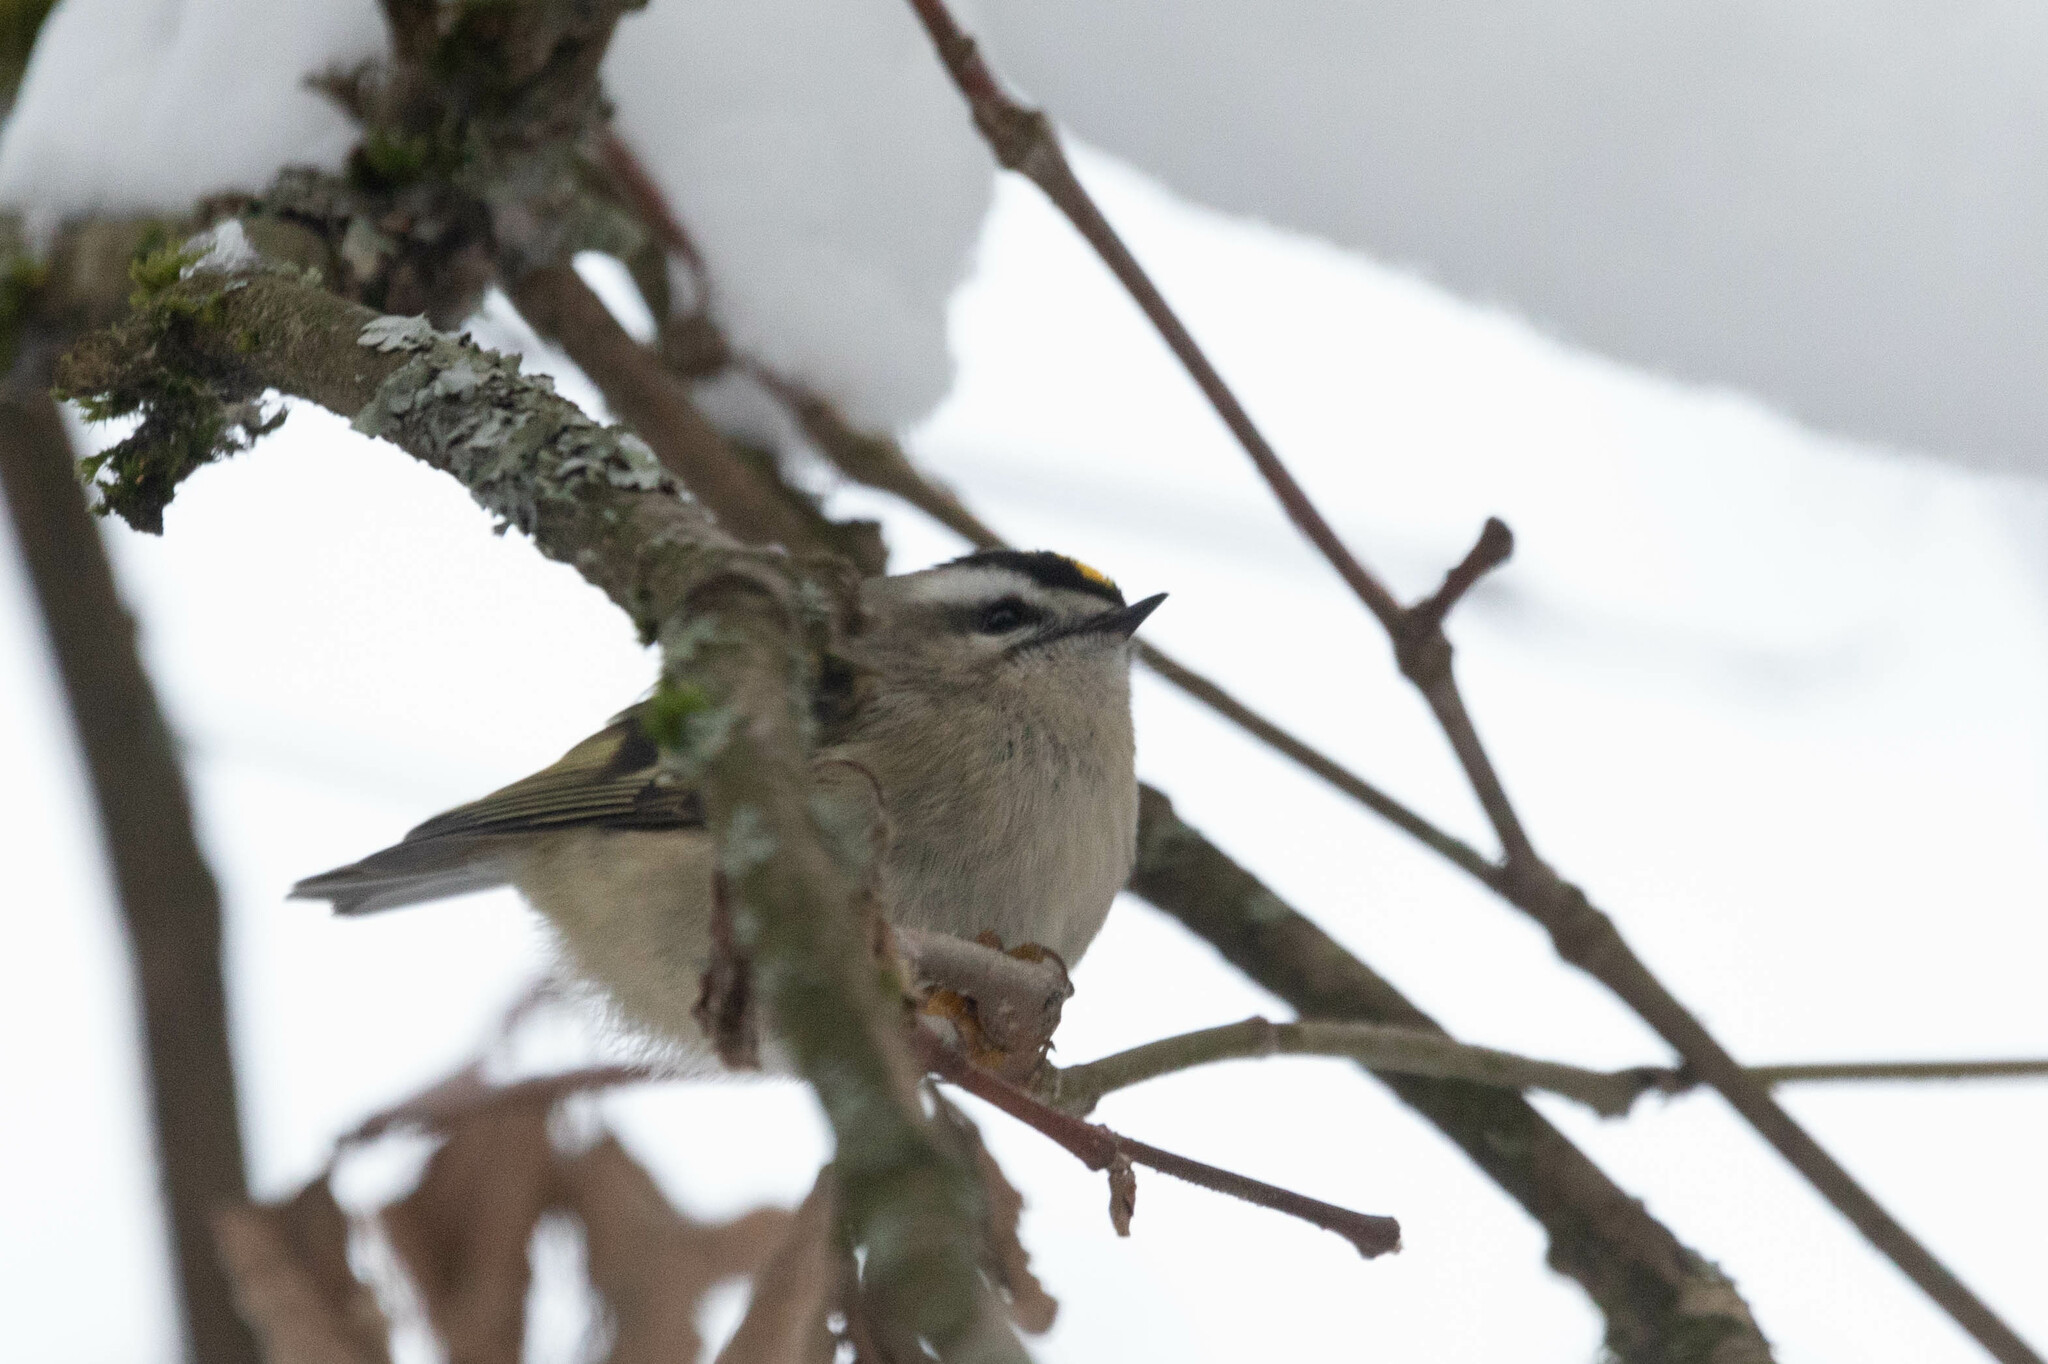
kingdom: Animalia
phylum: Chordata
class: Aves
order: Passeriformes
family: Regulidae
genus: Regulus
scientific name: Regulus satrapa
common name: Golden-crowned kinglet
